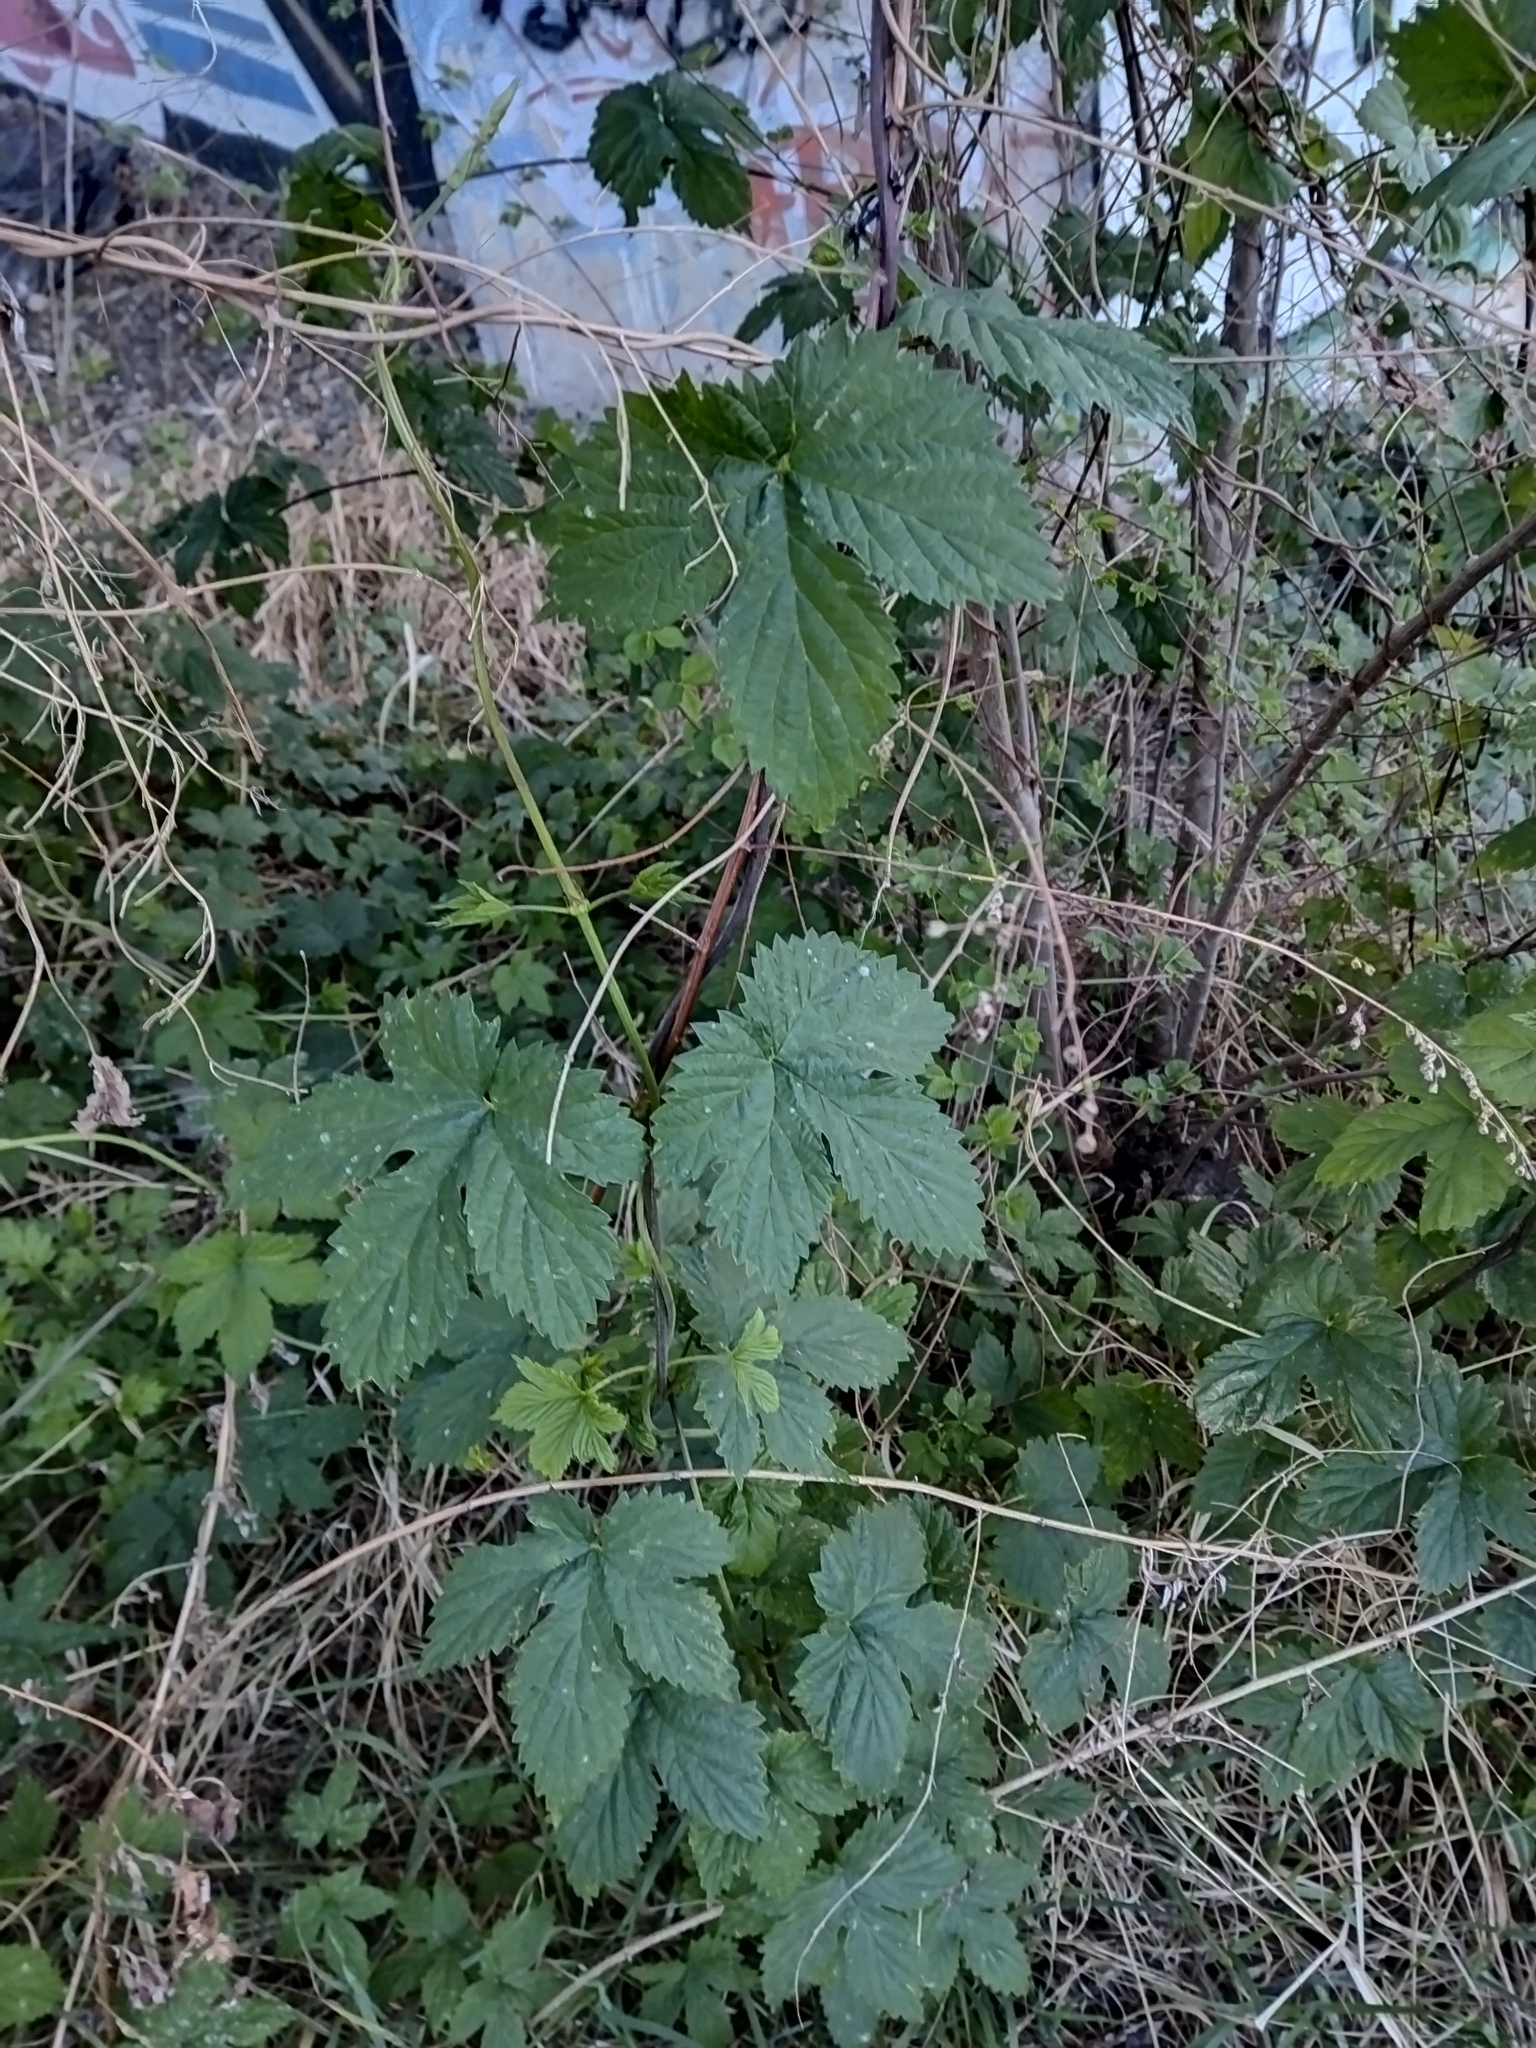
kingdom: Plantae
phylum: Tracheophyta
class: Magnoliopsida
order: Rosales
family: Cannabaceae
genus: Humulus
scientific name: Humulus lupulus
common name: Hop
